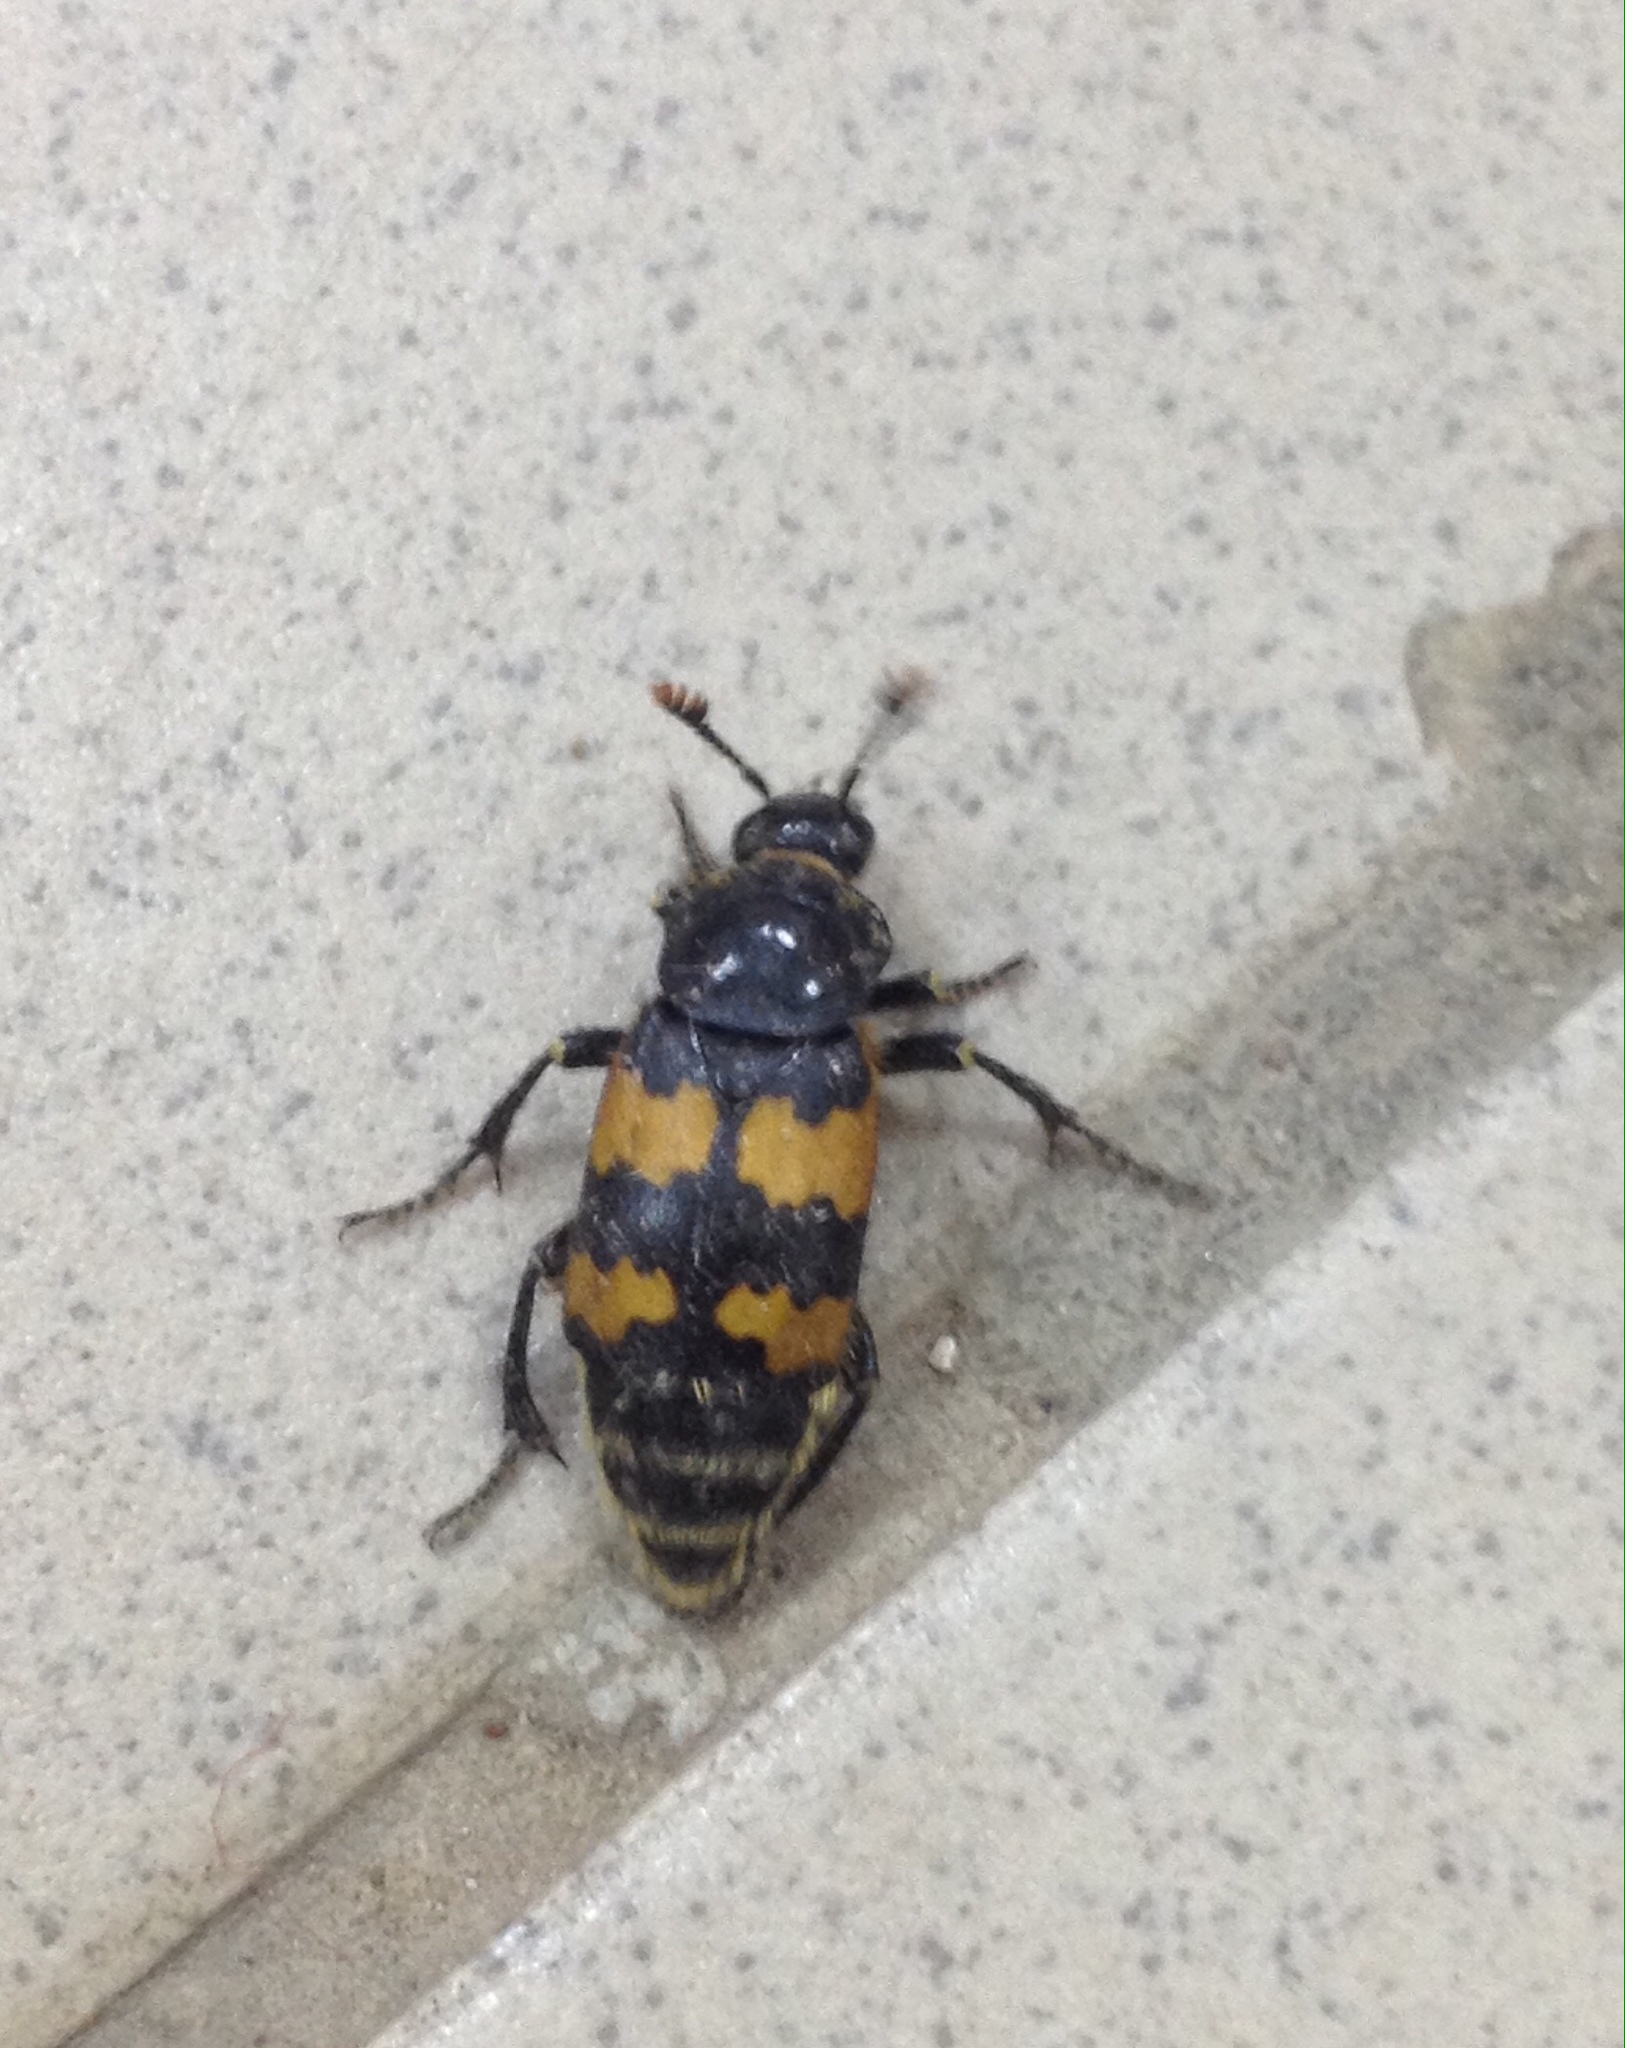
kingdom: Animalia
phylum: Arthropoda
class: Insecta
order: Coleoptera
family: Staphylinidae
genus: Nicrophorus
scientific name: Nicrophorus vespillo
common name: Common burying beetle
